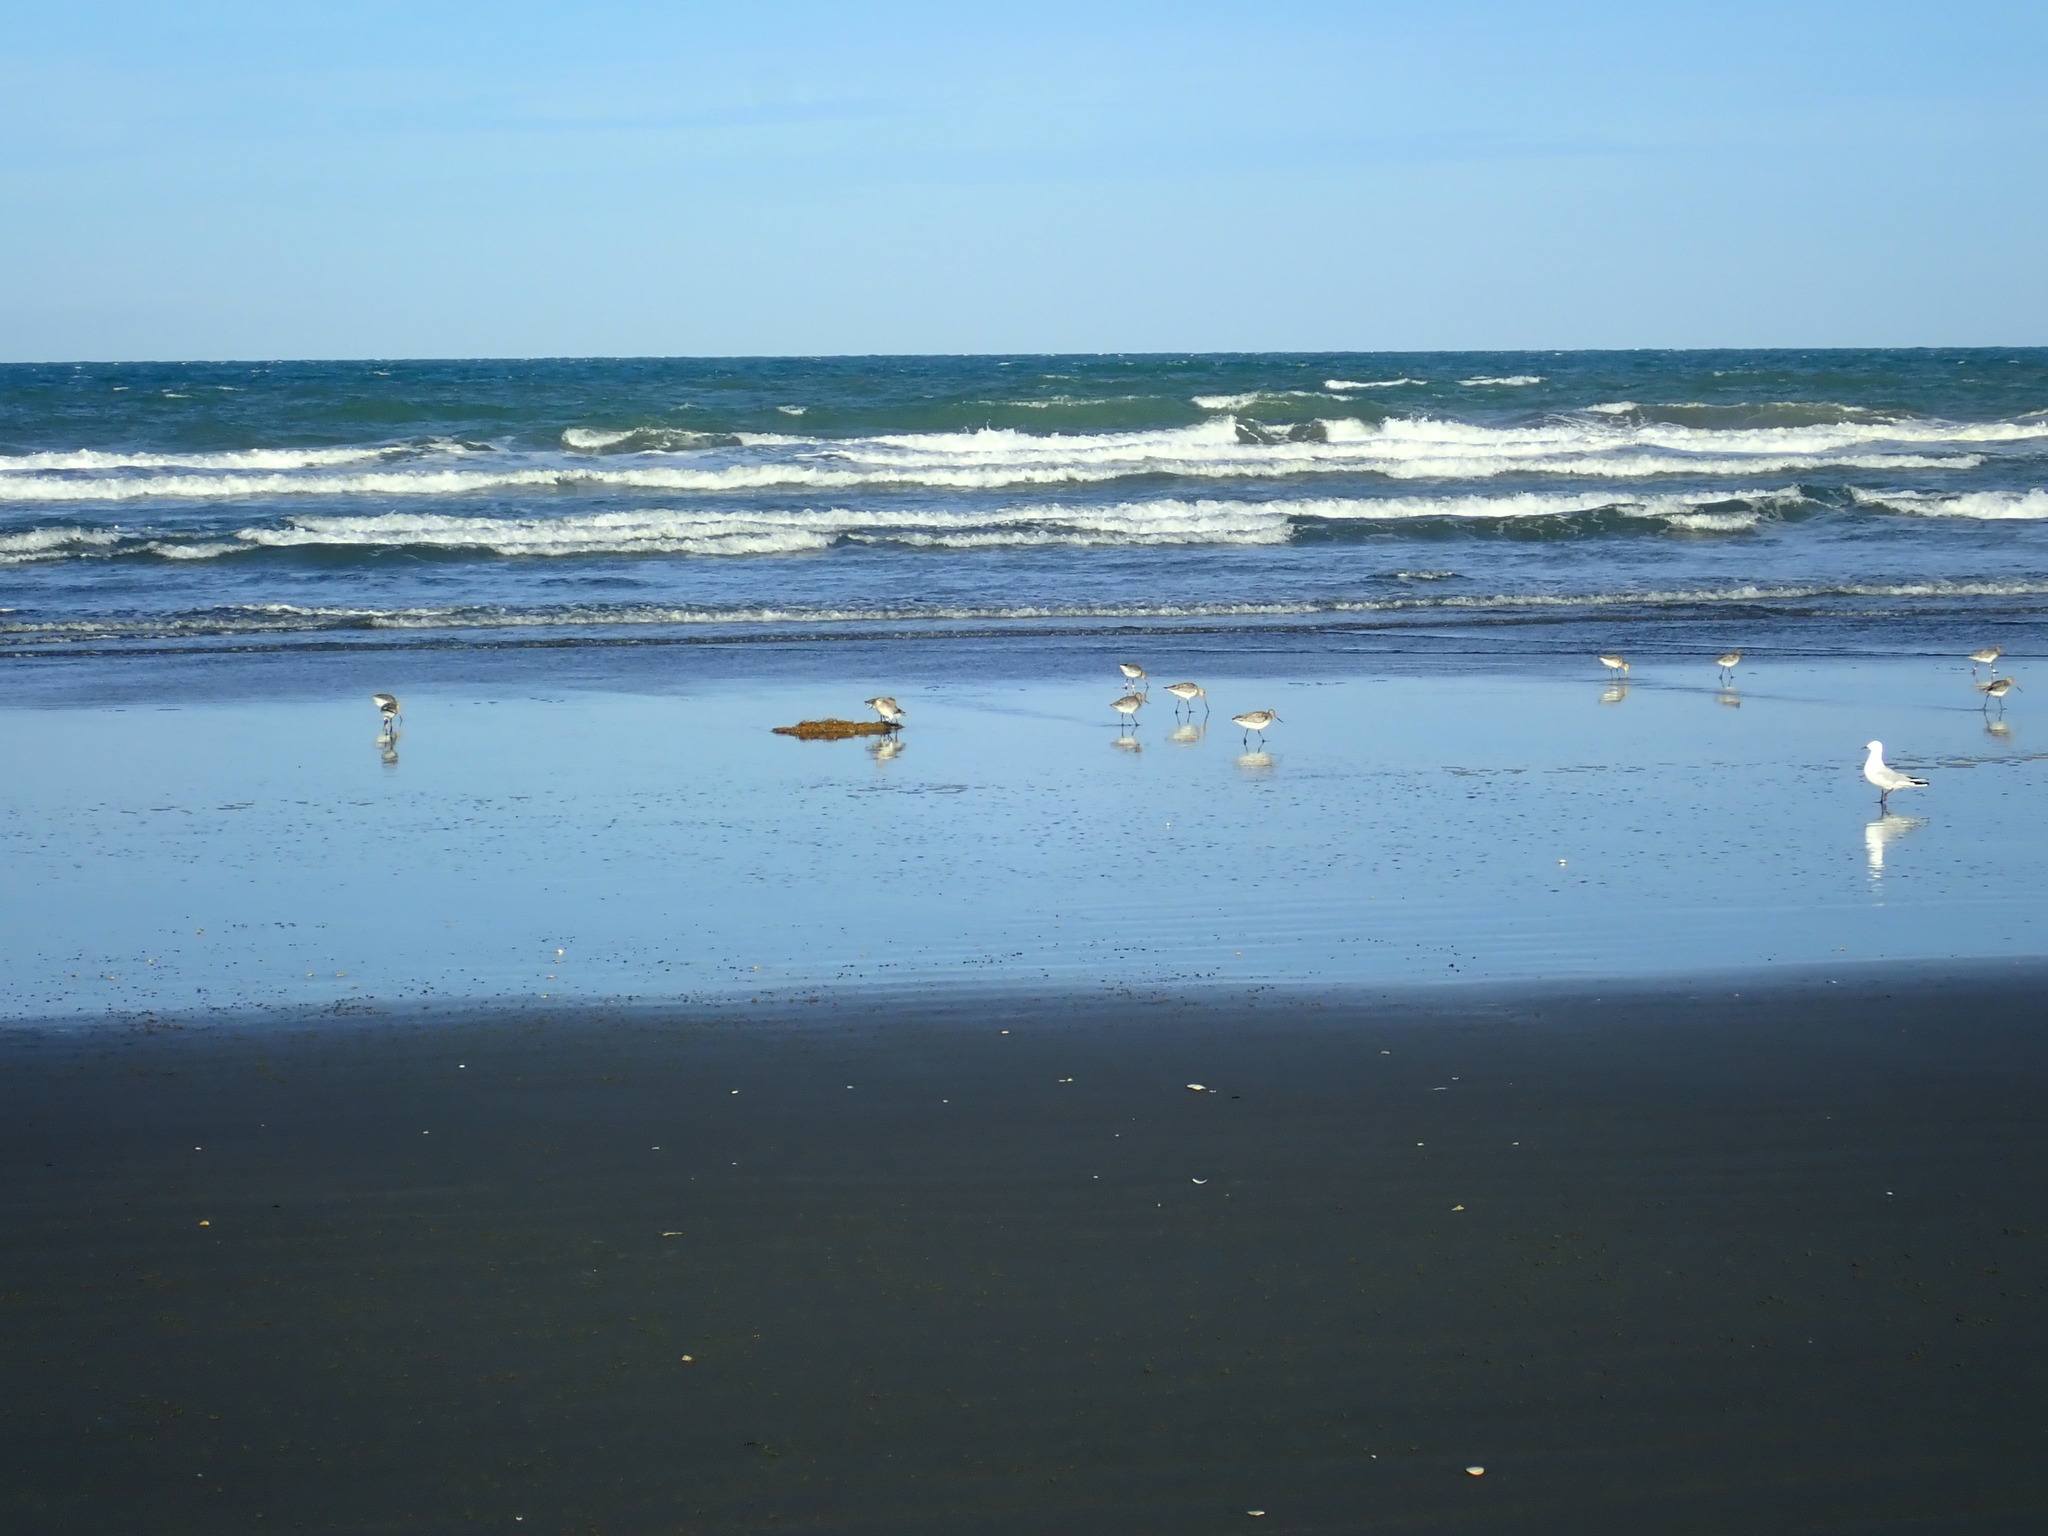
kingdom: Animalia
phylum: Chordata
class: Aves
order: Charadriiformes
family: Scolopacidae
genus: Limosa
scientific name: Limosa lapponica
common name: Bar-tailed godwit
